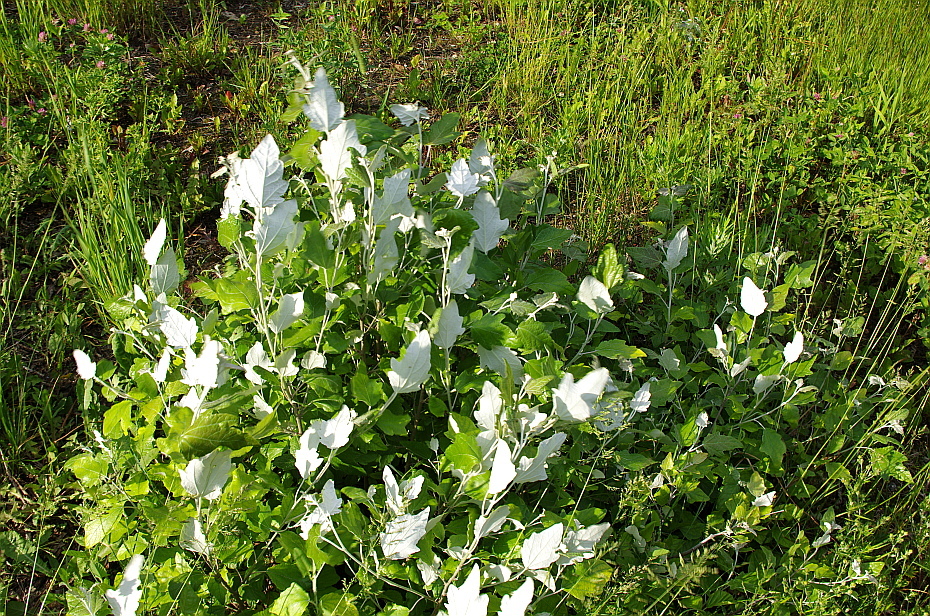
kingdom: Plantae
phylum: Tracheophyta
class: Magnoliopsida
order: Malpighiales
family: Salicaceae
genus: Populus
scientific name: Populus alba
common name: White poplar
